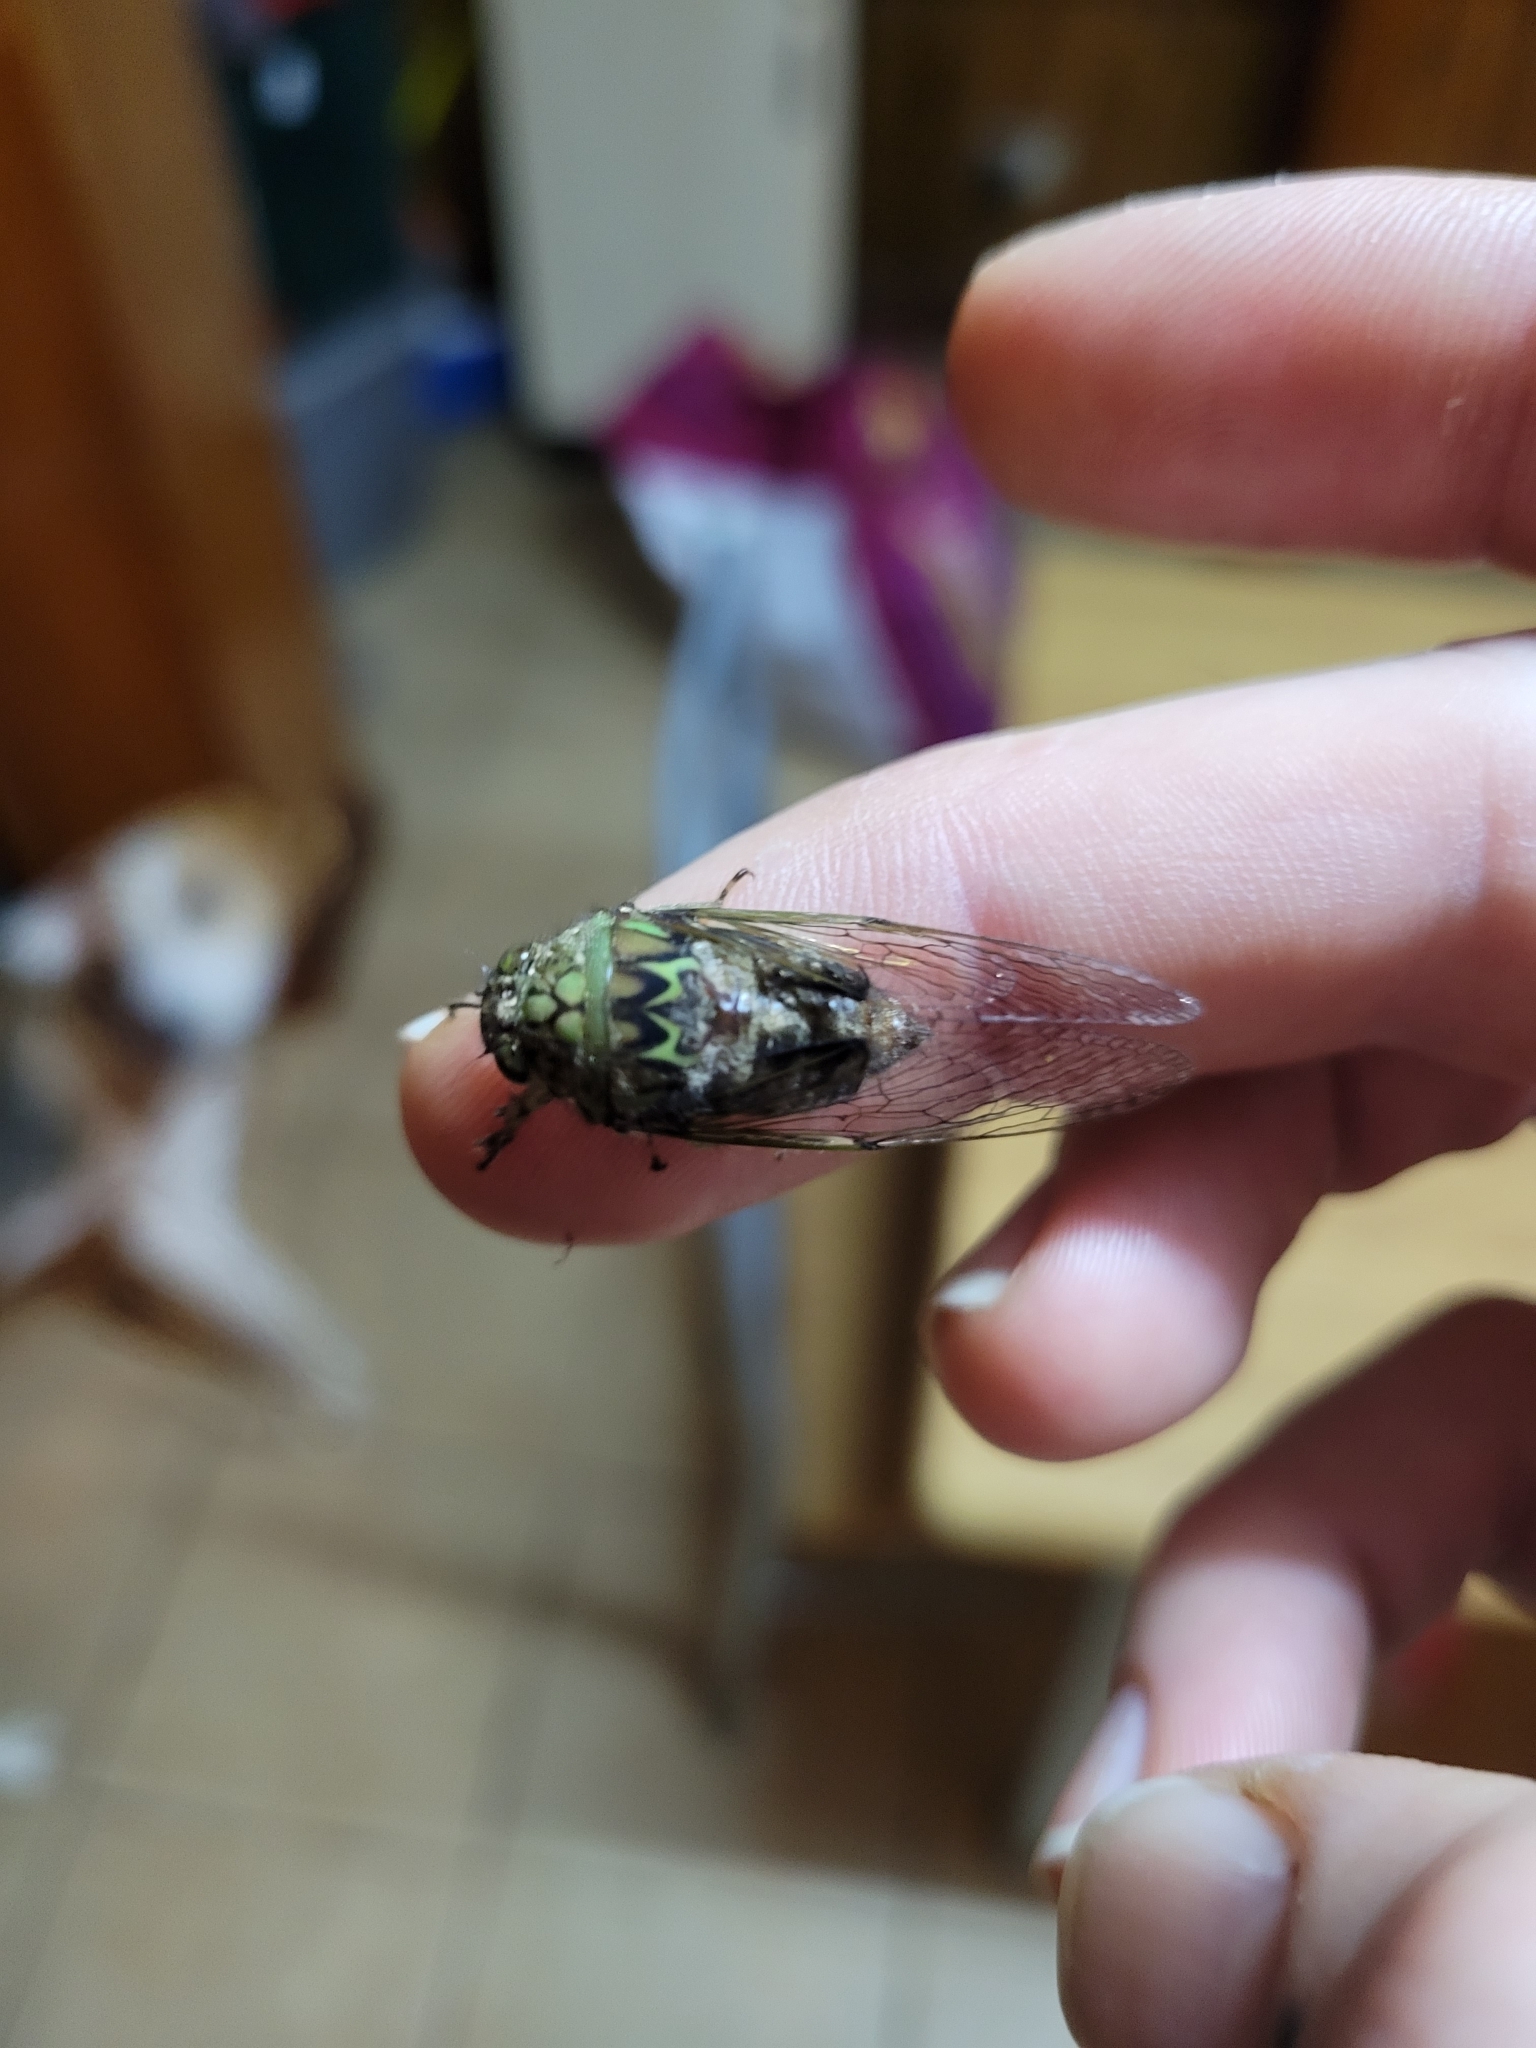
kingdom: Animalia
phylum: Arthropoda
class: Insecta
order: Hemiptera
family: Cicadidae
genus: Carineta
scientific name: Carineta trivittata
